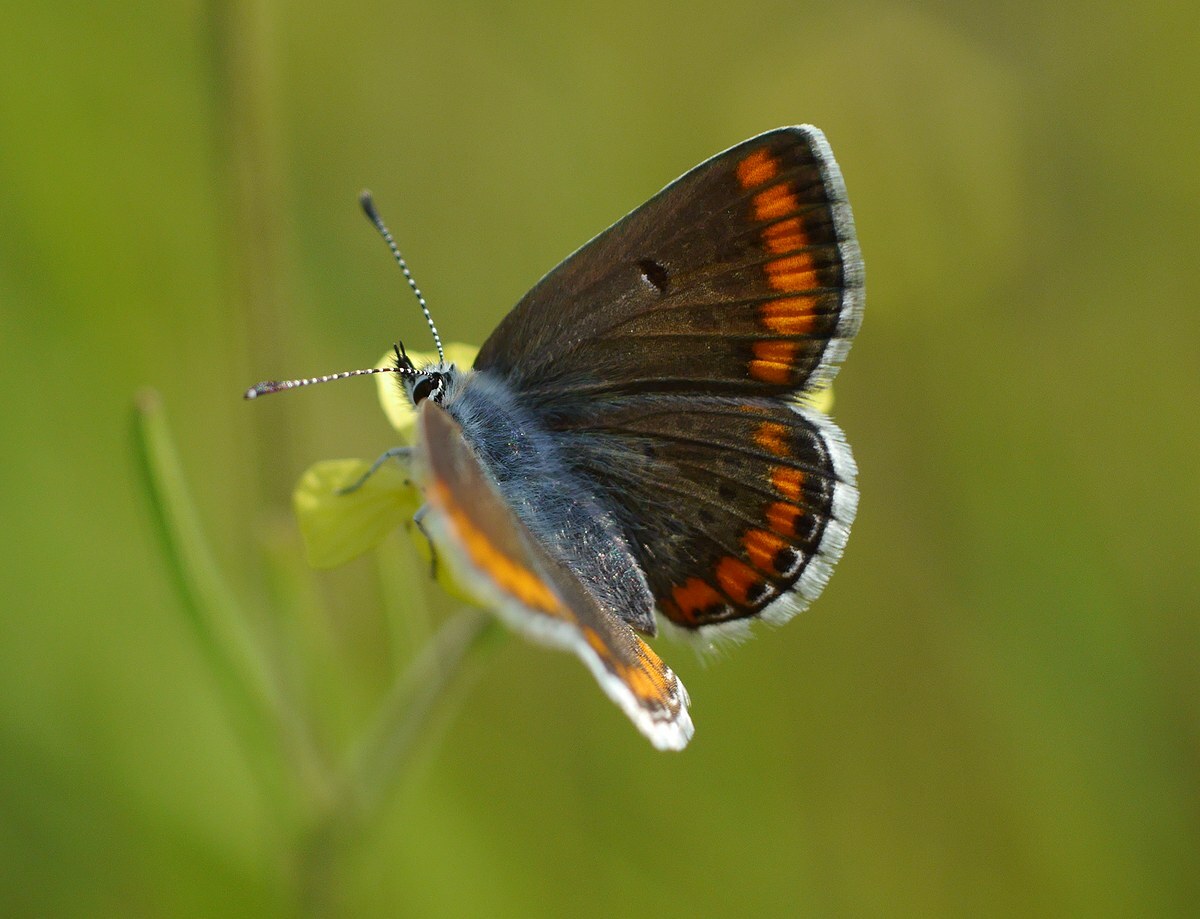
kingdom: Animalia
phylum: Arthropoda
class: Insecta
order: Lepidoptera
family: Lycaenidae
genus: Aricia
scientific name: Aricia agestis
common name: Brown argus
